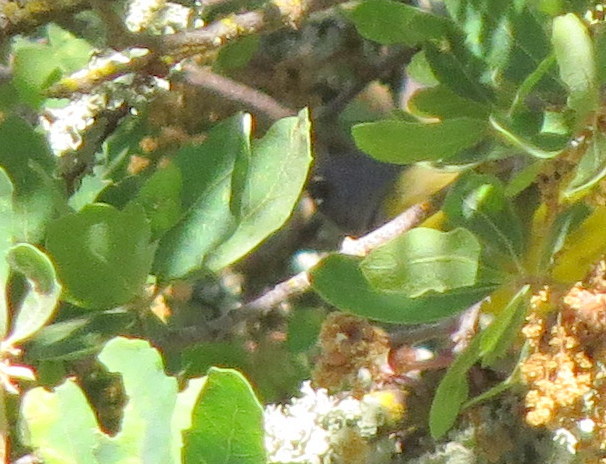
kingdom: Animalia
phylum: Chordata
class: Aves
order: Passeriformes
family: Parulidae
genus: Geothlypis
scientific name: Geothlypis tolmiei
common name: Macgillivray's warbler
